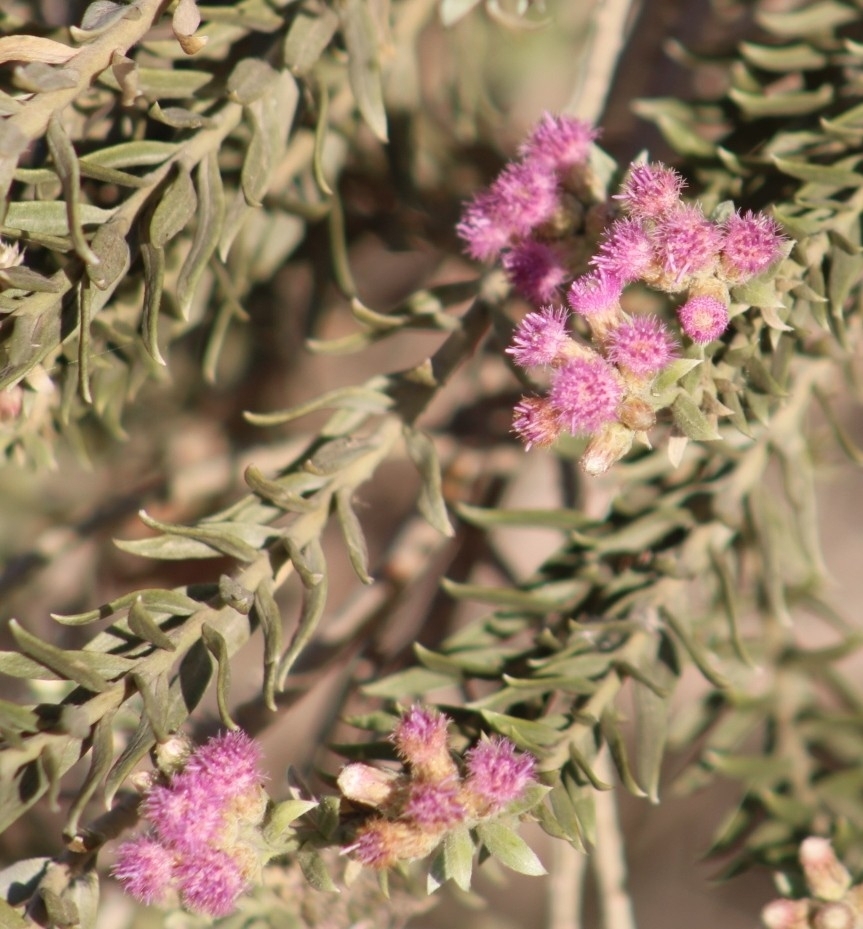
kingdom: Plantae
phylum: Tracheophyta
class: Magnoliopsida
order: Asterales
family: Asteraceae
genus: Pluchea
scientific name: Pluchea sericea
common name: Arrow-weed
